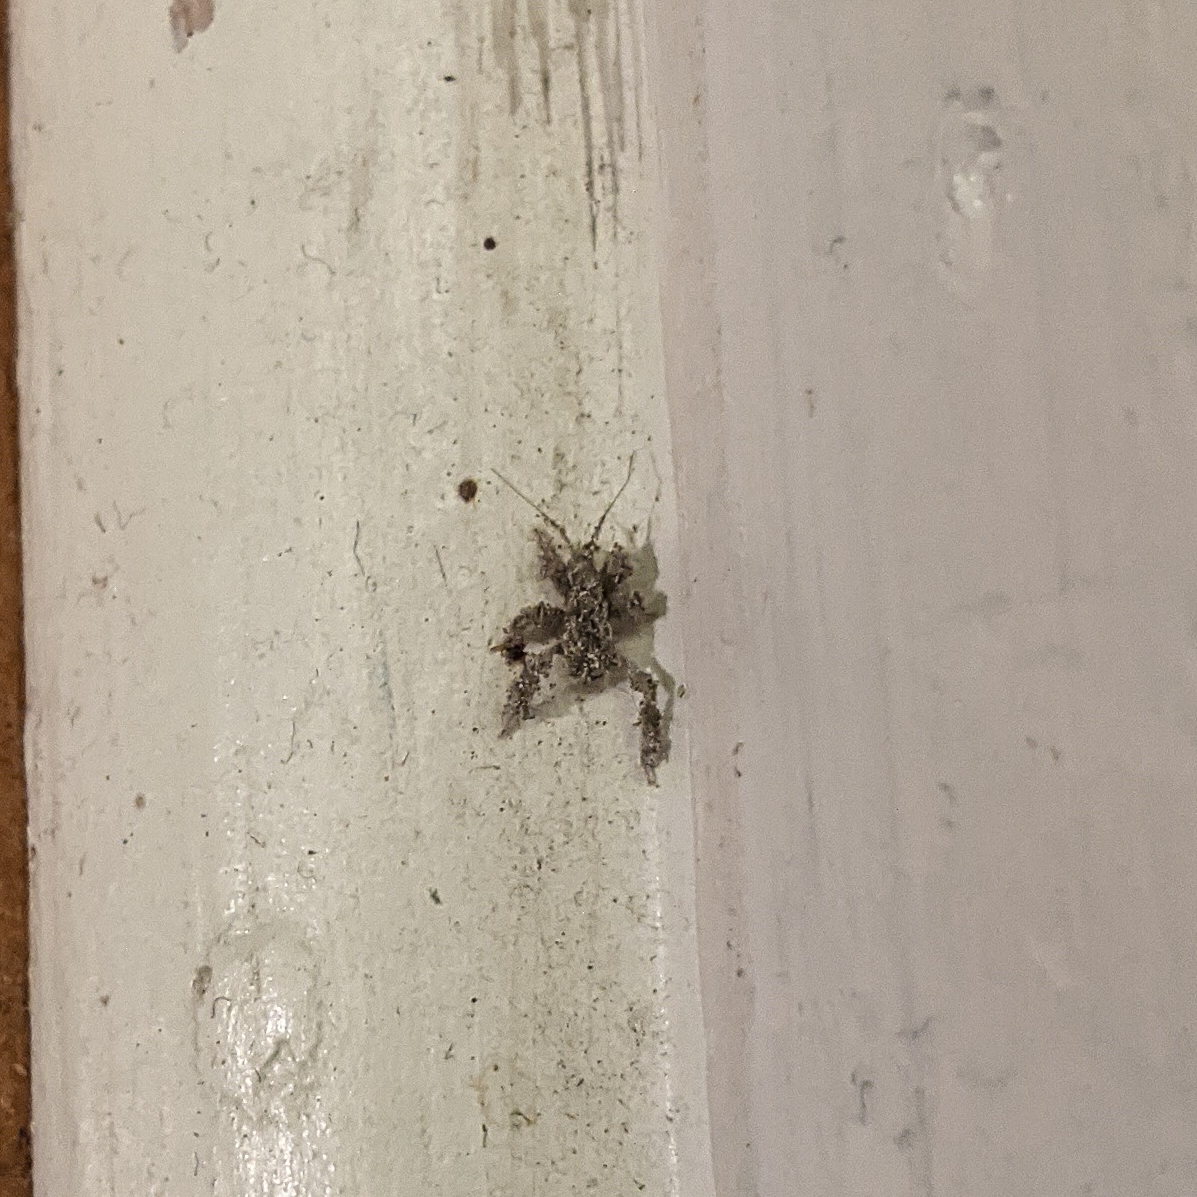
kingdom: Animalia
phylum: Arthropoda
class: Insecta
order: Hemiptera
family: Reduviidae
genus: Reduvius
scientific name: Reduvius personatus
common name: Masked hunter
